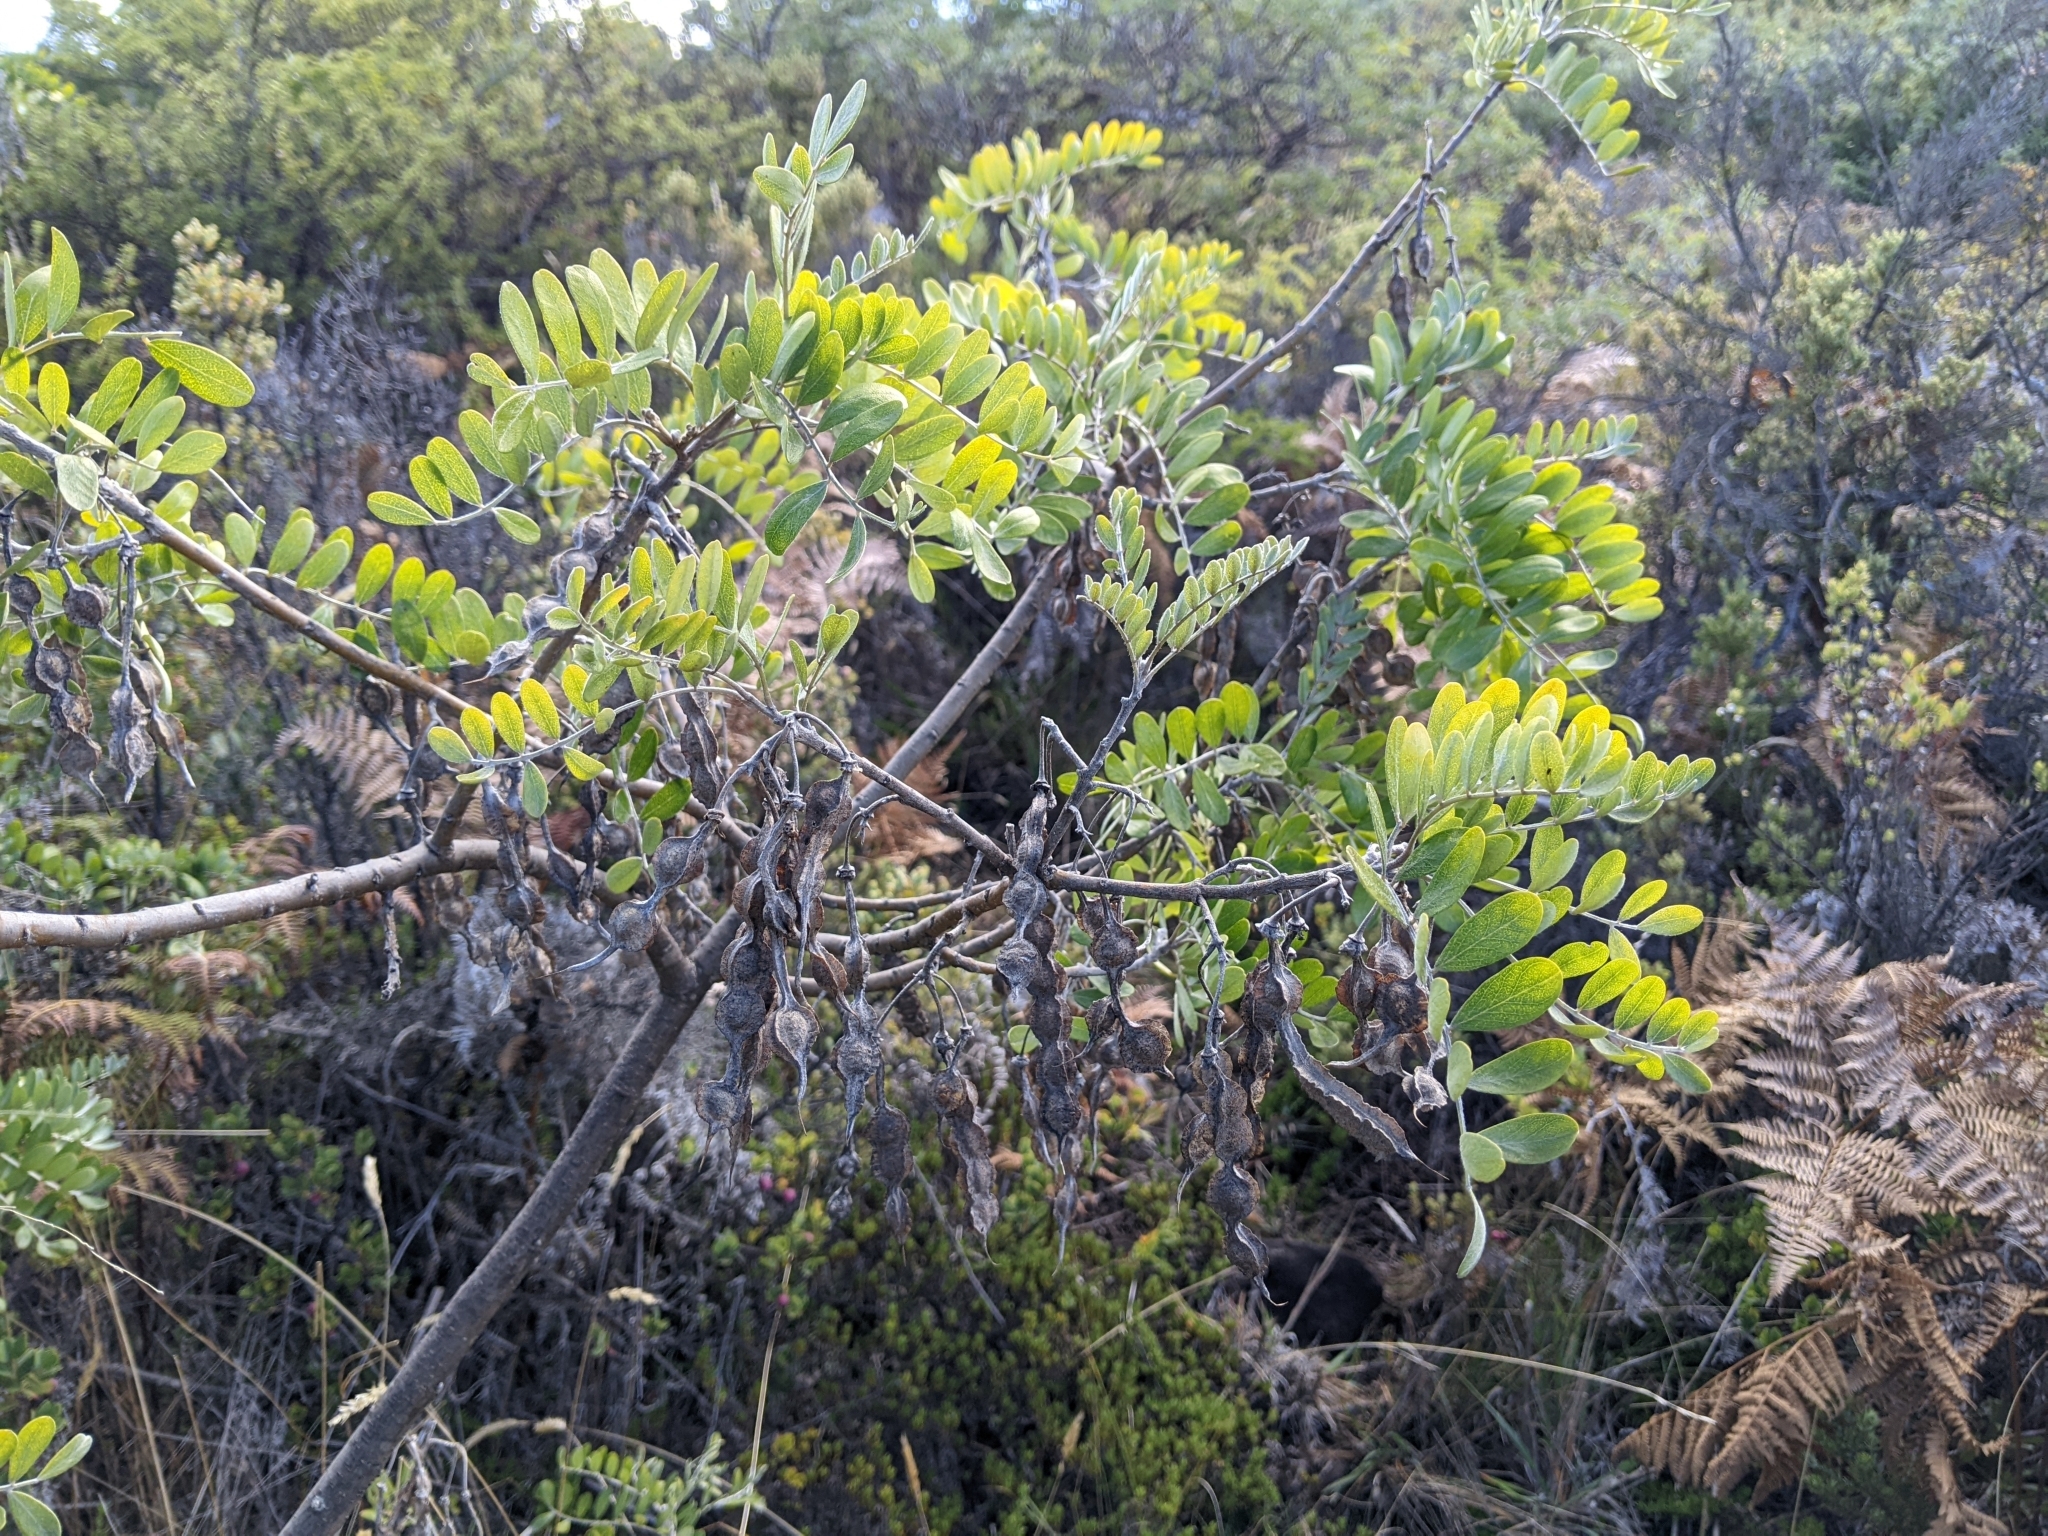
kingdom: Plantae
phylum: Tracheophyta
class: Magnoliopsida
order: Fabales
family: Fabaceae
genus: Sophora
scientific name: Sophora chrysophylla
